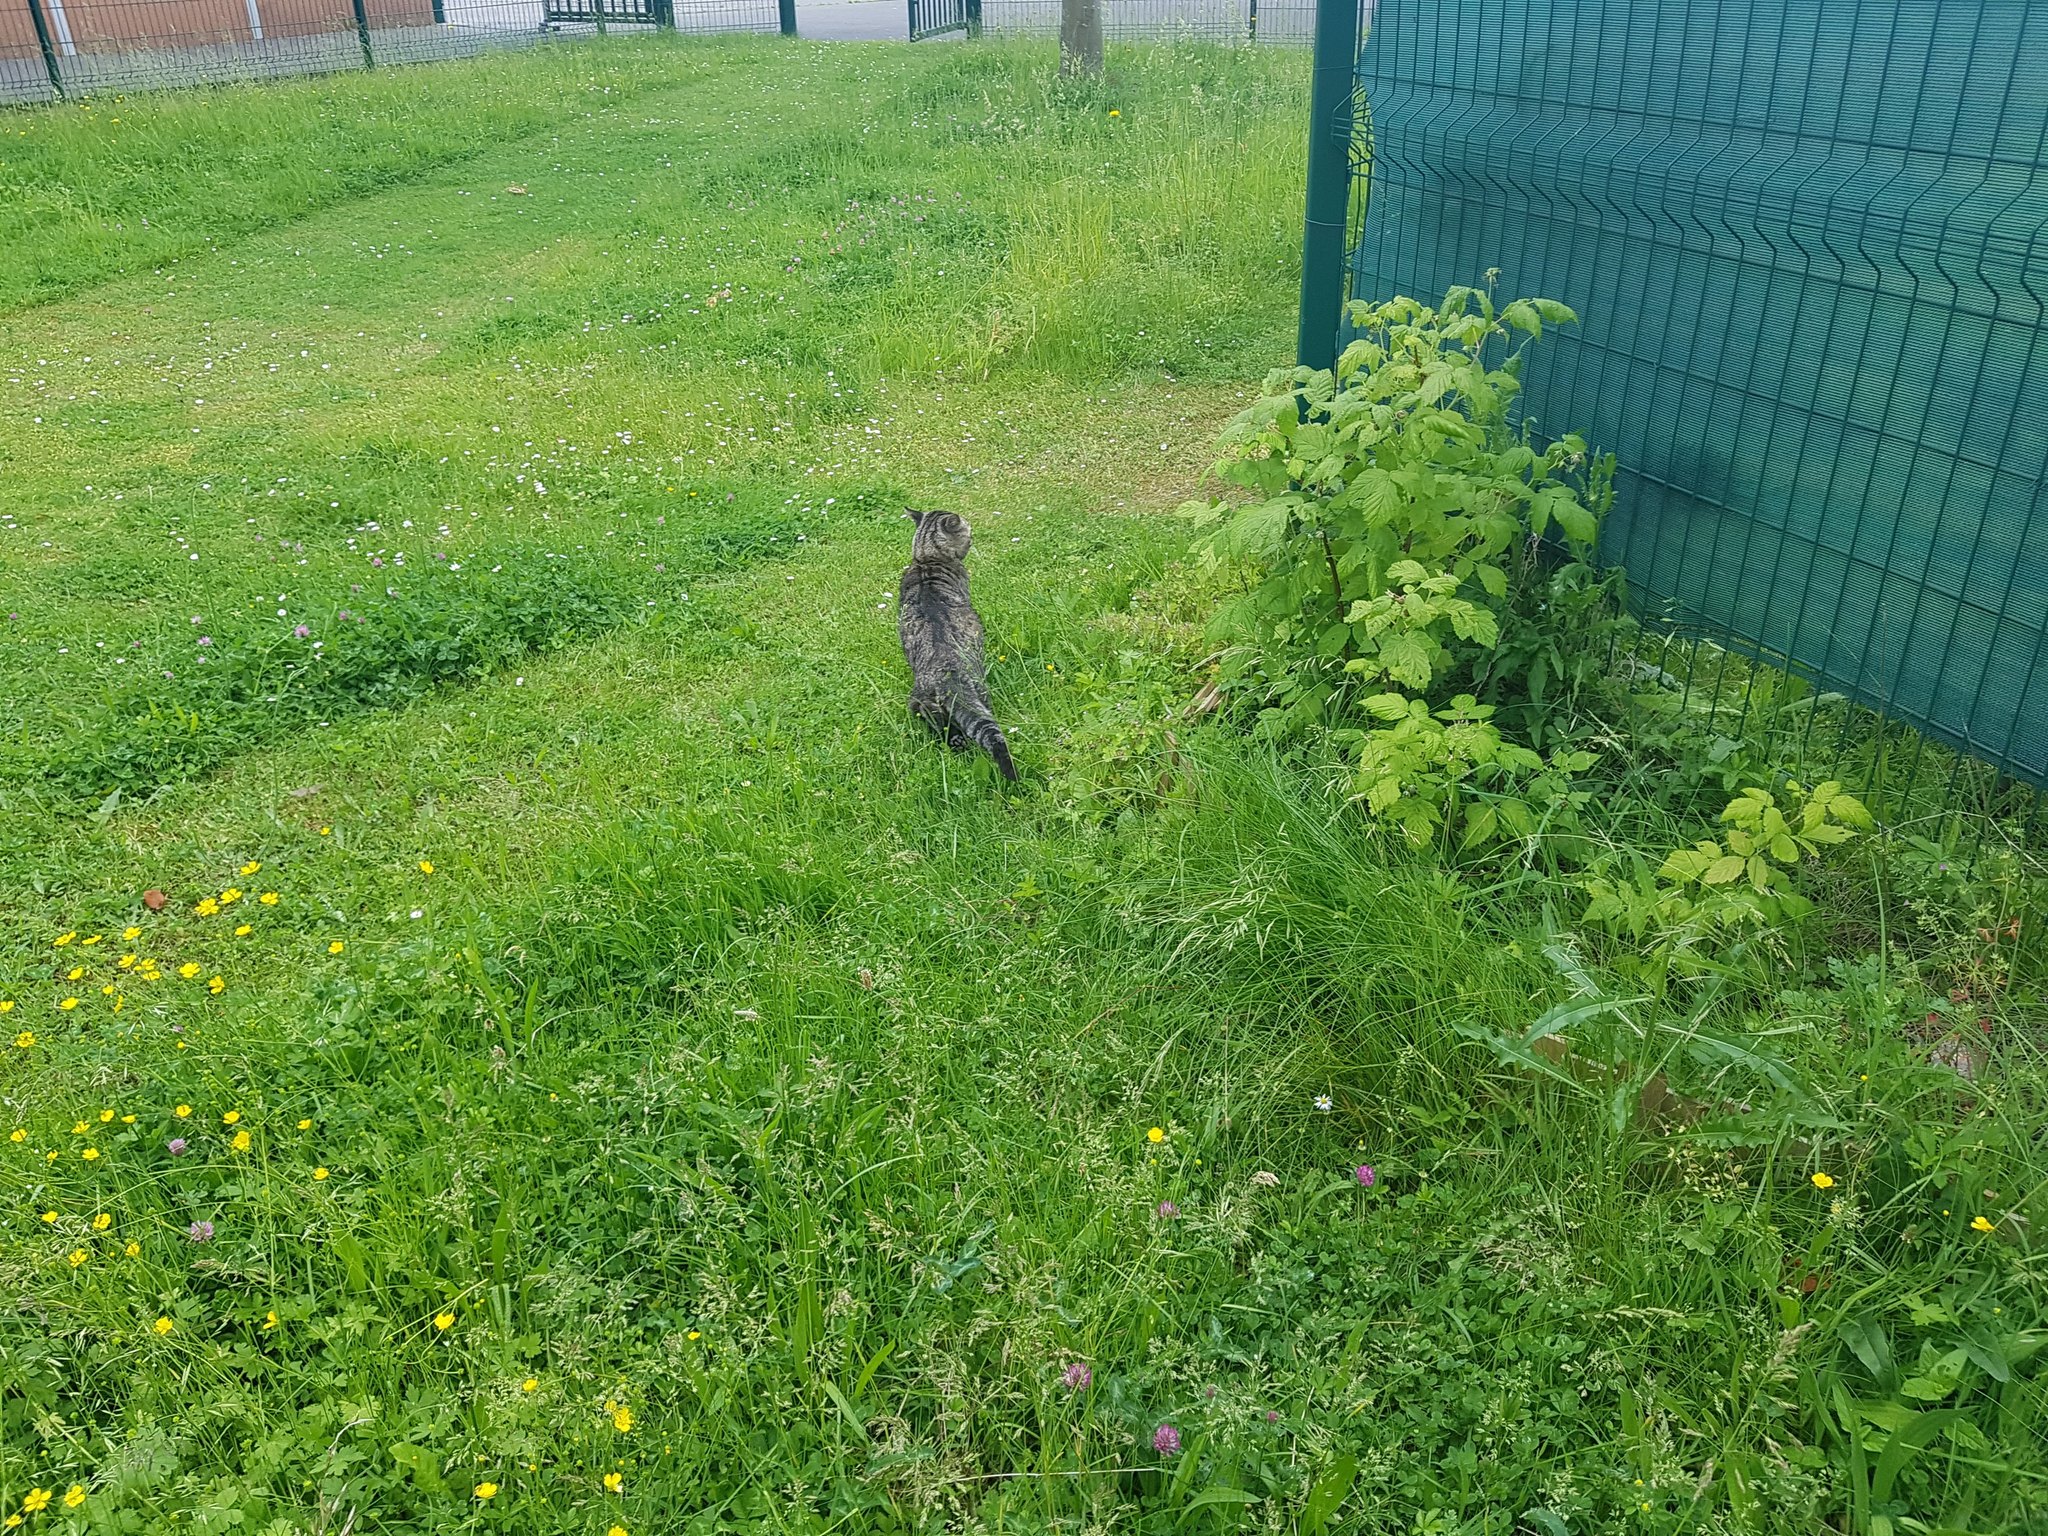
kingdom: Animalia
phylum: Chordata
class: Mammalia
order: Carnivora
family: Felidae
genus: Felis
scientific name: Felis catus
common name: Domestic cat
